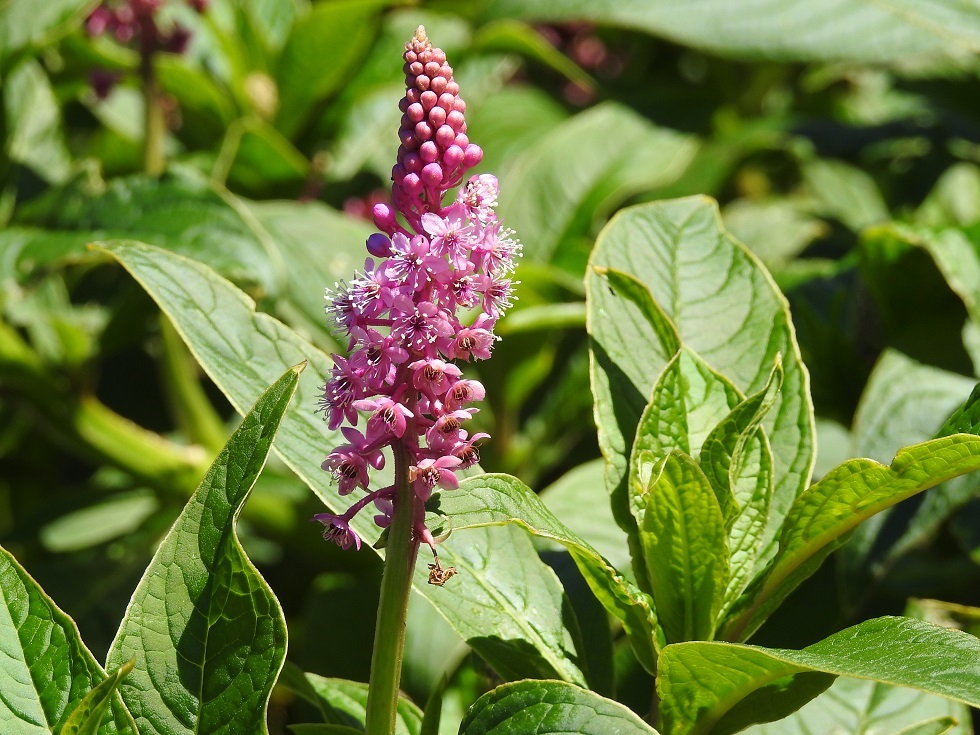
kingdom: Plantae
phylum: Tracheophyta
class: Magnoliopsida
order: Caryophyllales
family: Phytolaccaceae
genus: Phytolacca
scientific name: Phytolacca icosandra
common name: Button pokeweed
